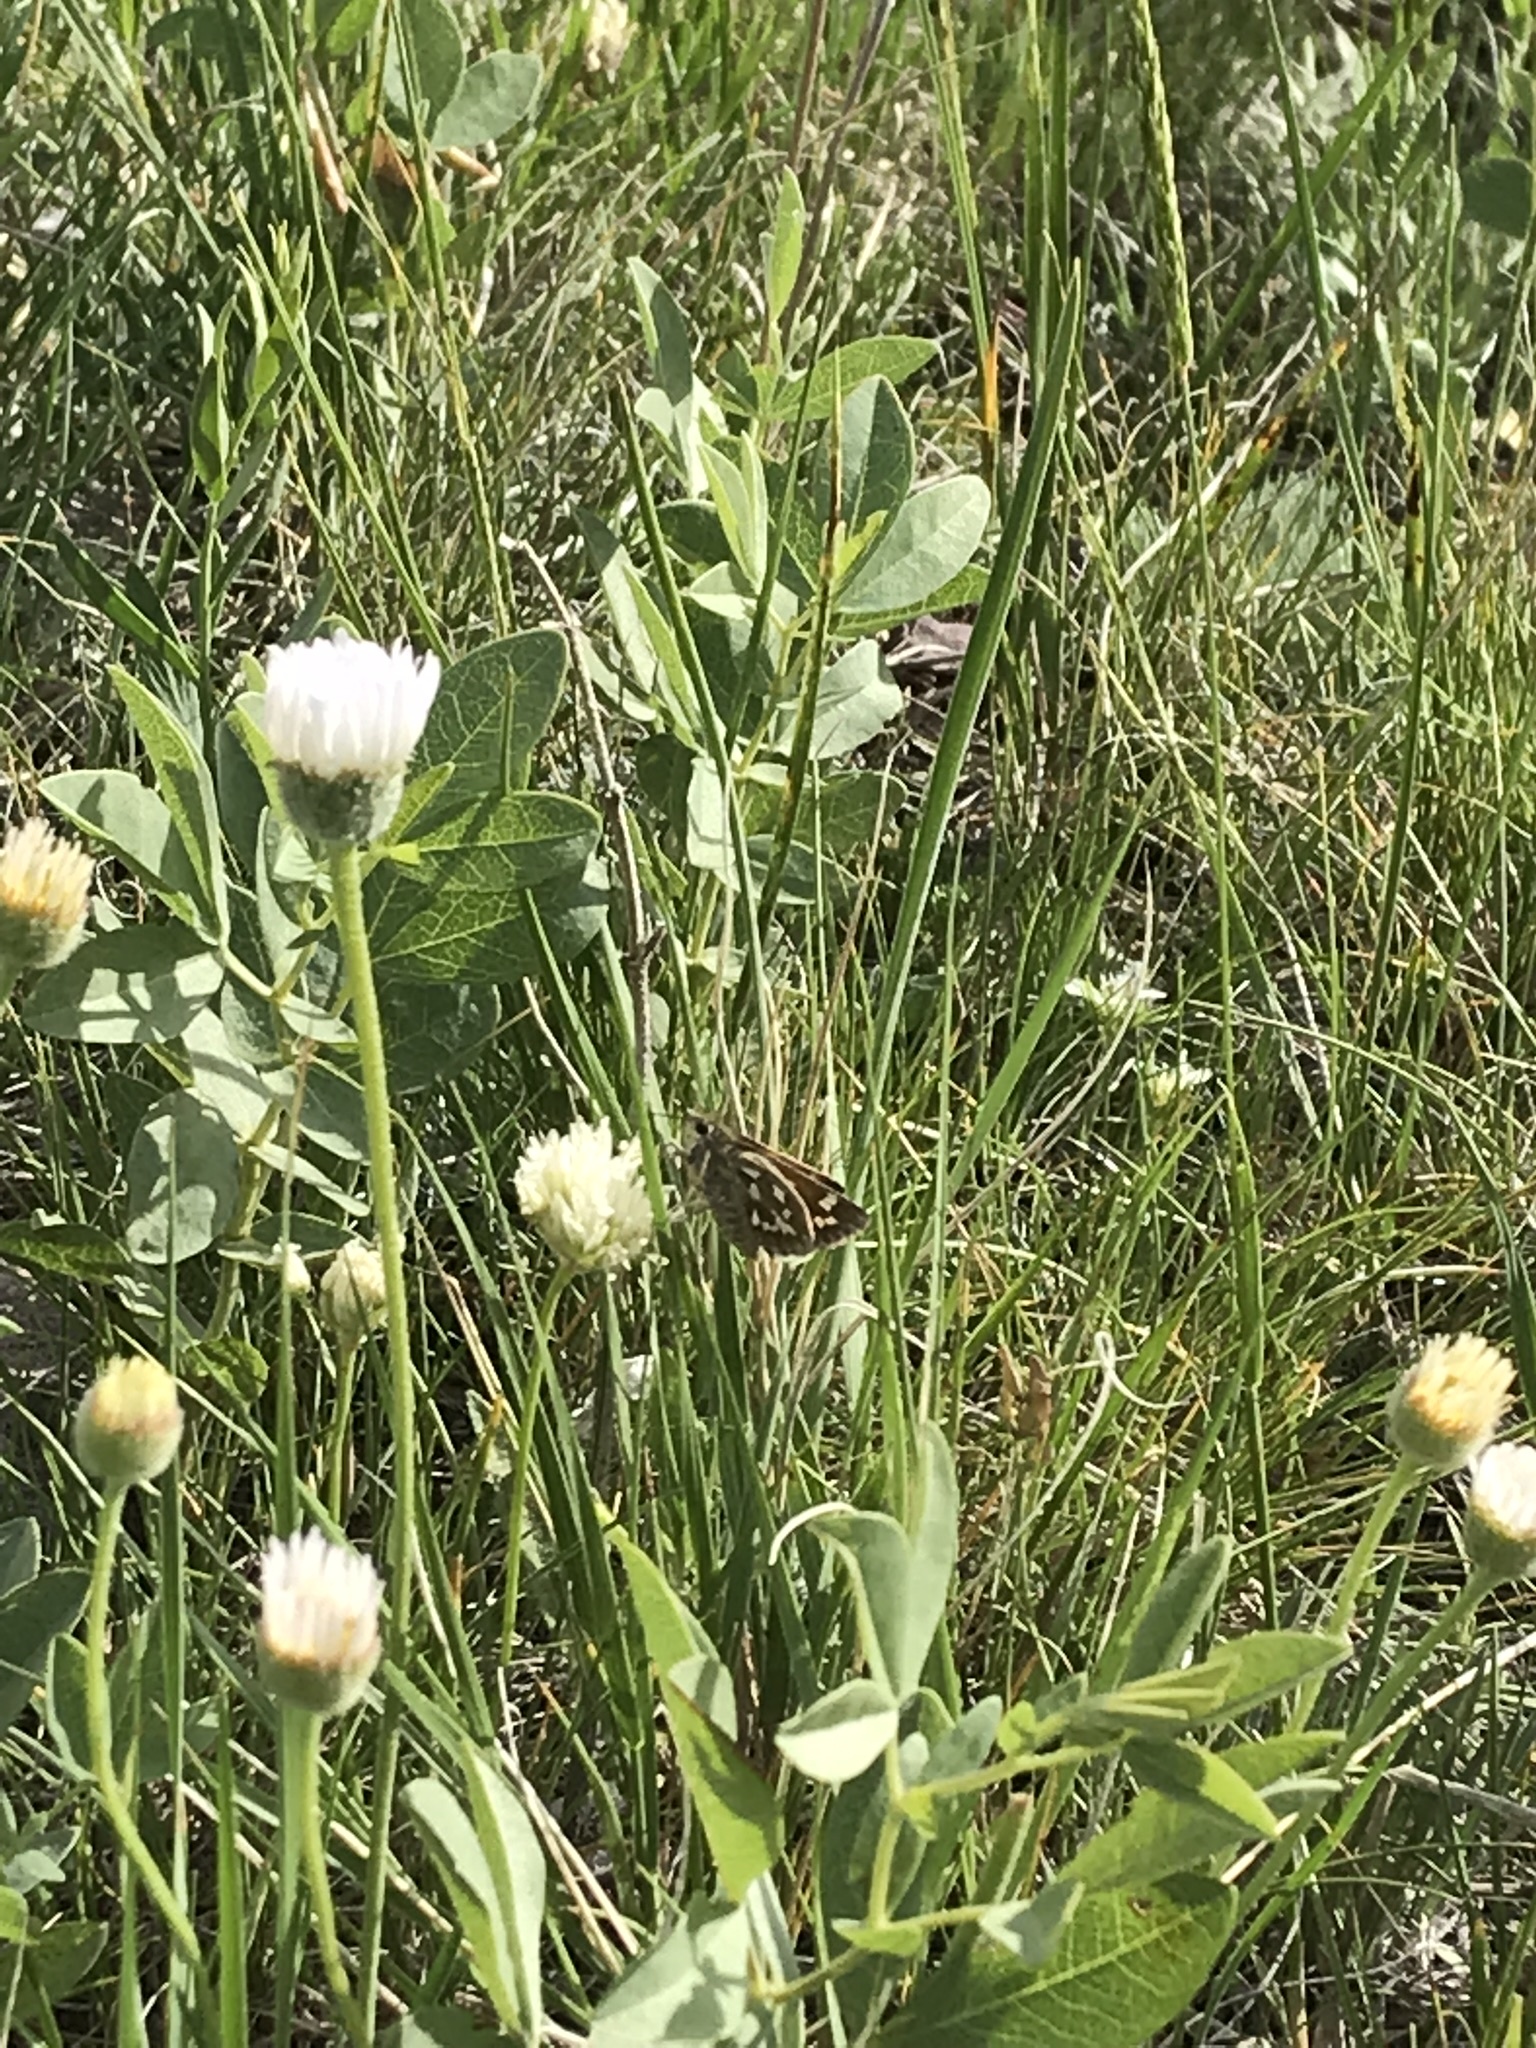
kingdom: Animalia
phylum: Arthropoda
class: Insecta
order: Lepidoptera
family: Hesperiidae
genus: Polites
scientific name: Polites sabuleti
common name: Sandhill skipper
